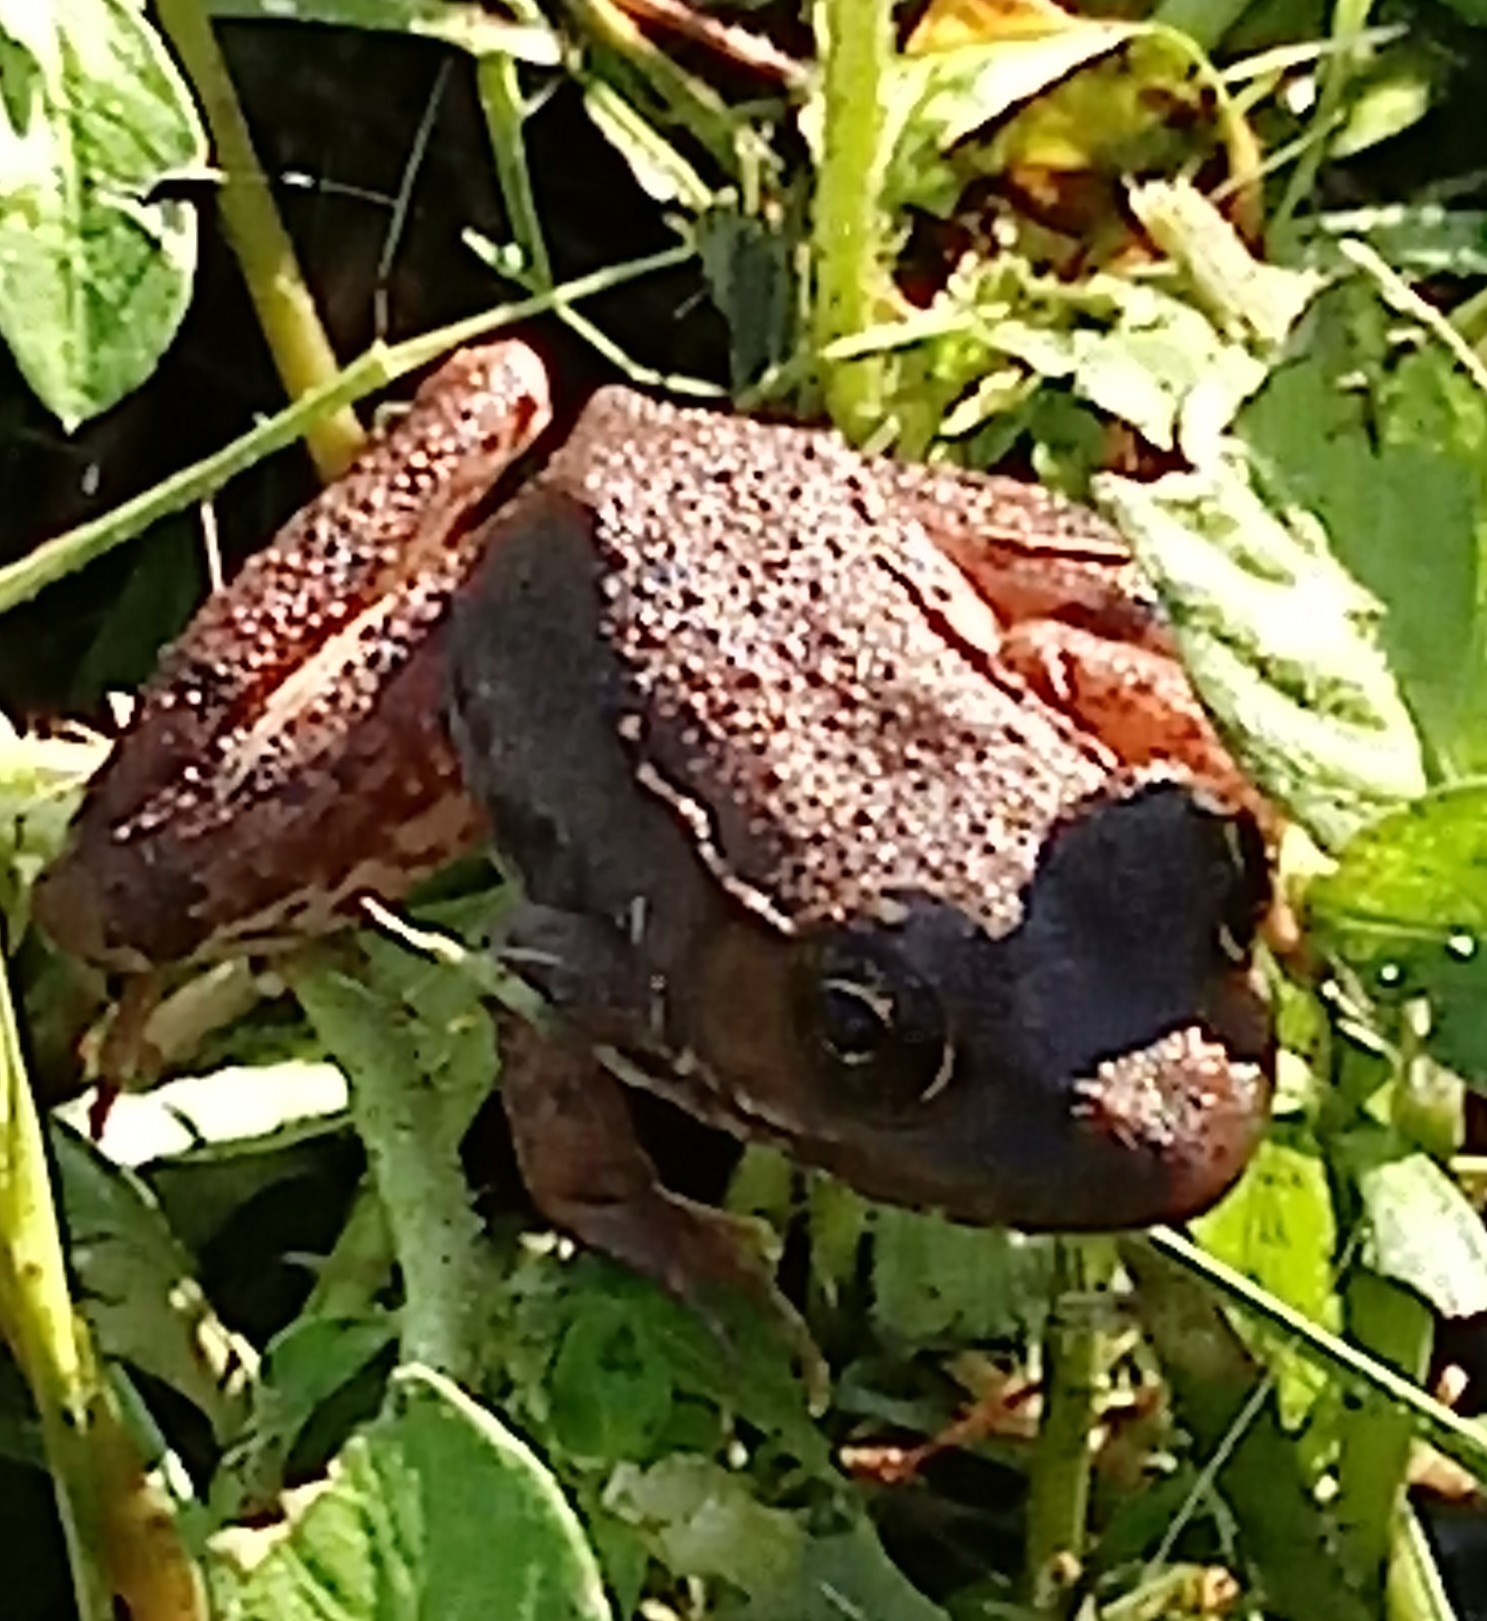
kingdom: Animalia
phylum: Chordata
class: Amphibia
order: Anura
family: Ranidae
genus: Lithobates
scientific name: Lithobates clamitans
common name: Green frog
